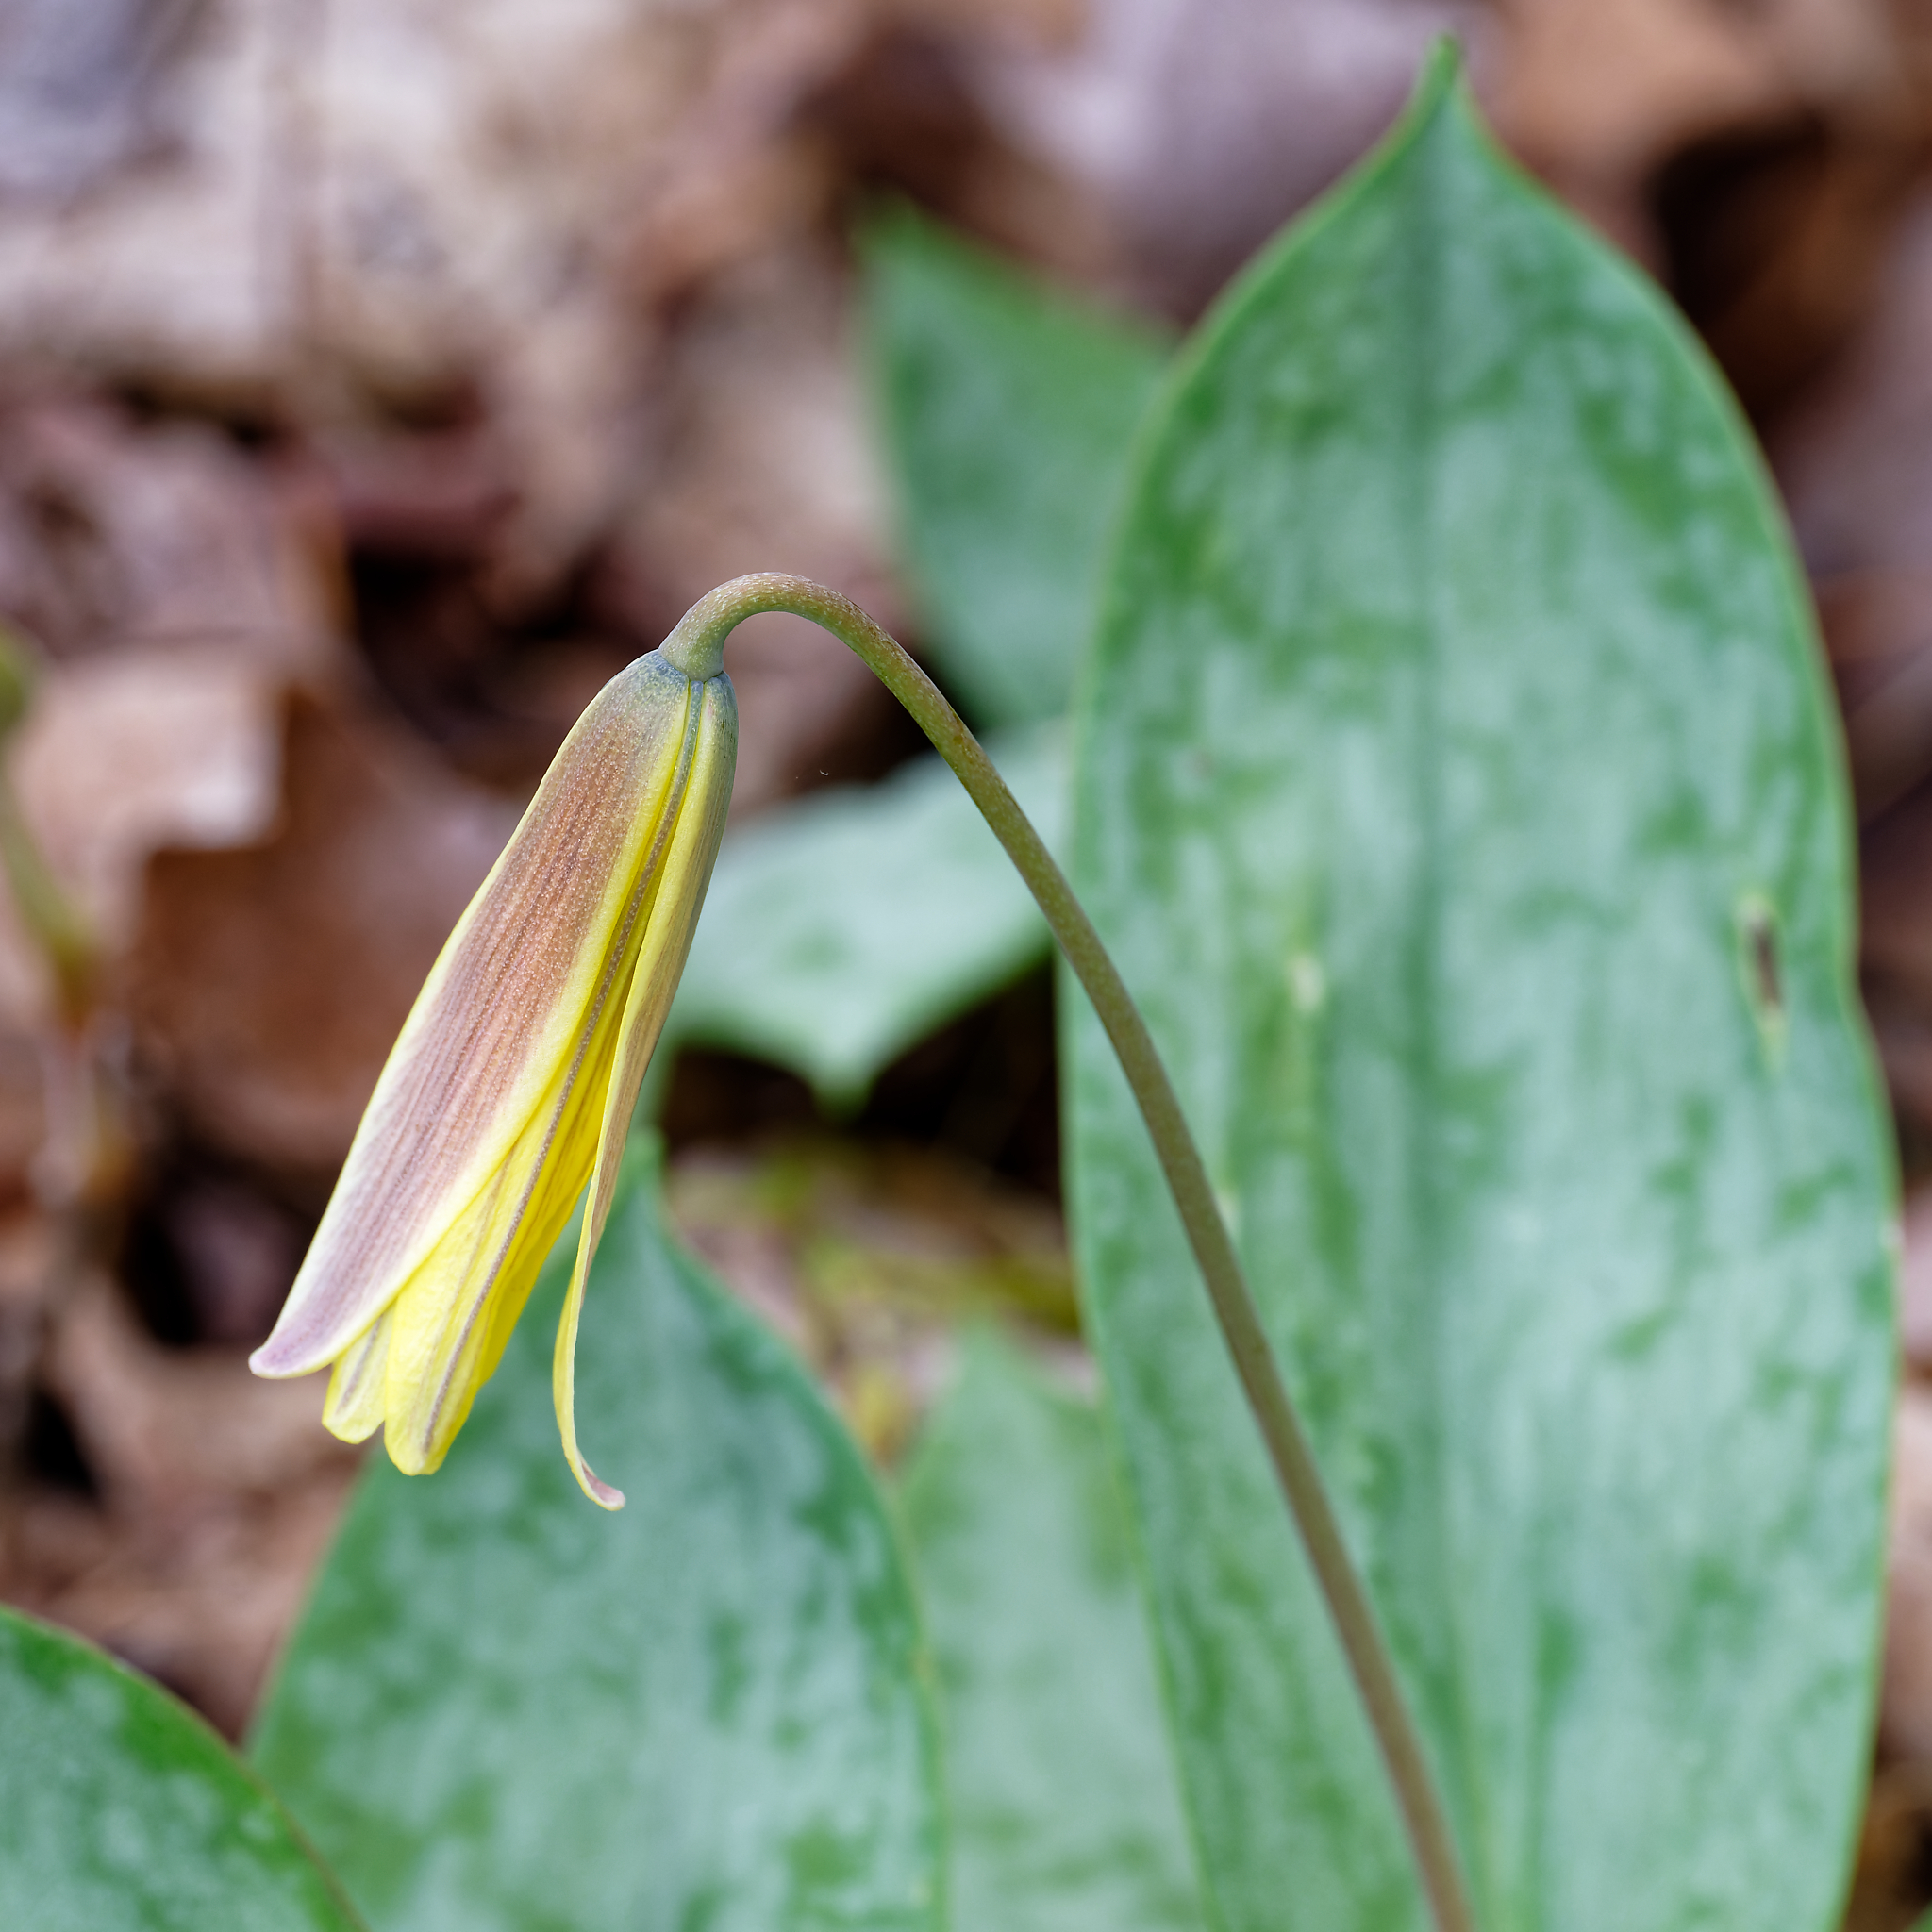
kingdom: Plantae
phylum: Tracheophyta
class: Liliopsida
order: Liliales
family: Liliaceae
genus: Erythronium
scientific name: Erythronium americanum
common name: Yellow adder's-tongue
